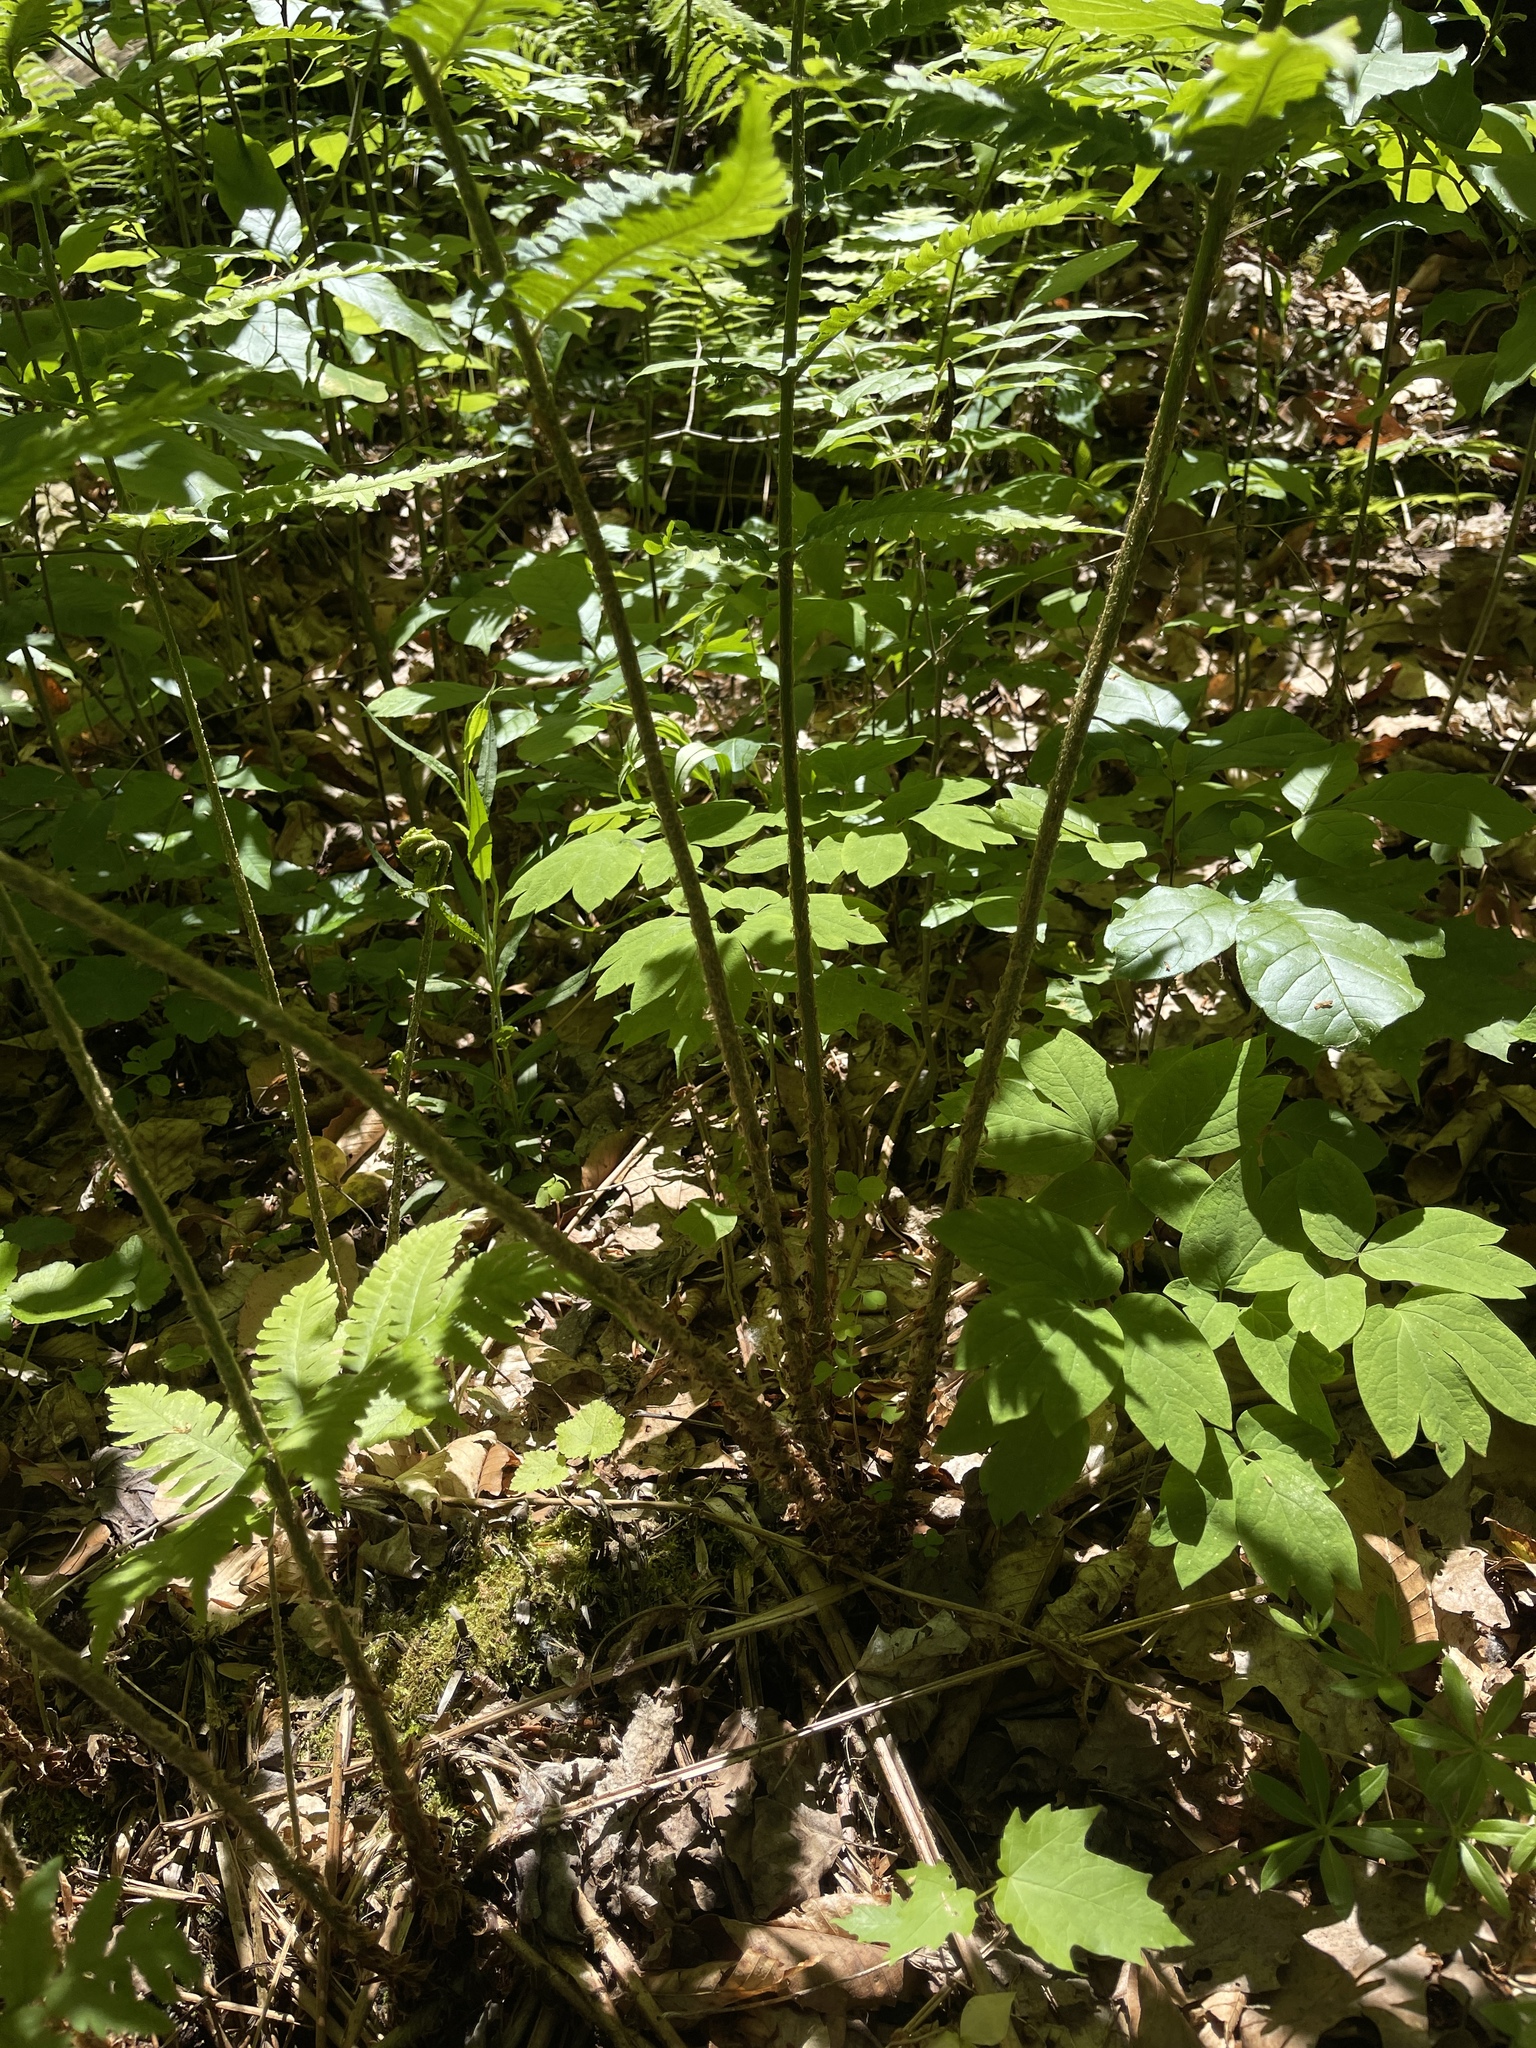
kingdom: Plantae
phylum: Tracheophyta
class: Polypodiopsida
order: Polypodiales
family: Dryopteridaceae
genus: Dryopteris
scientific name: Dryopteris goldieana
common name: Goldie's fern
